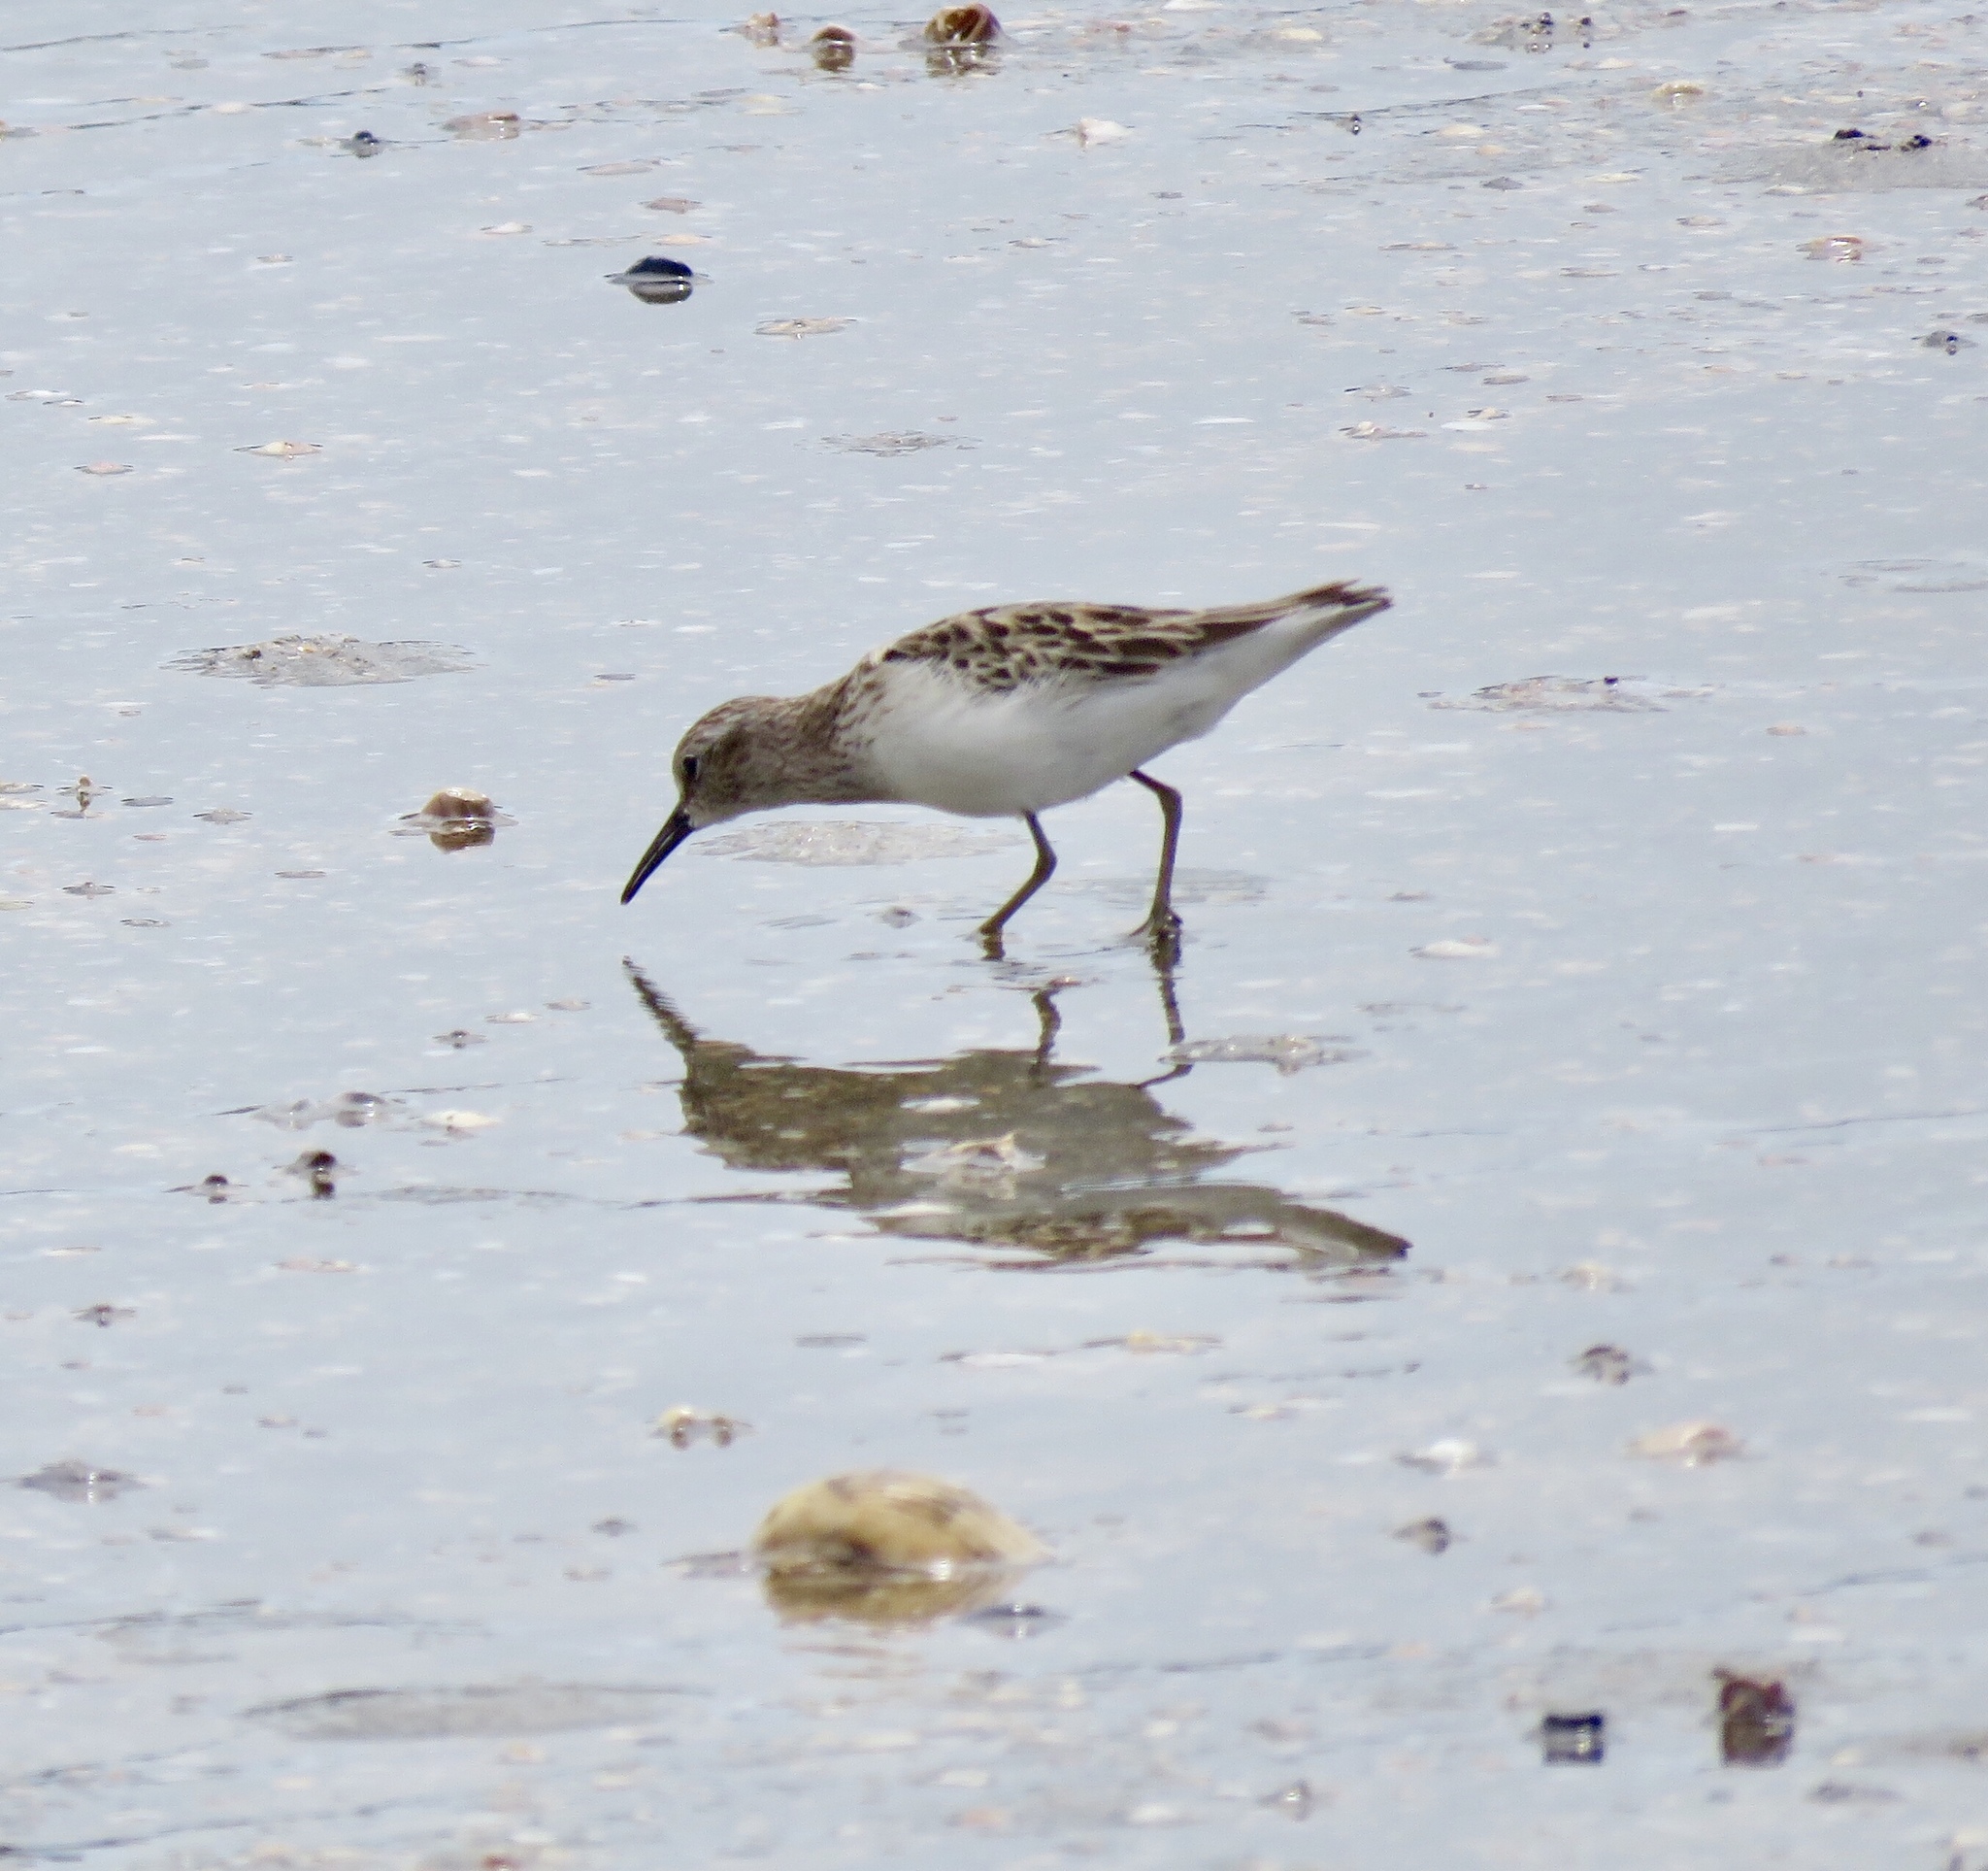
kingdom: Animalia
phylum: Chordata
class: Aves
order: Charadriiformes
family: Scolopacidae
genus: Calidris
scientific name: Calidris minutilla
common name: Least sandpiper
